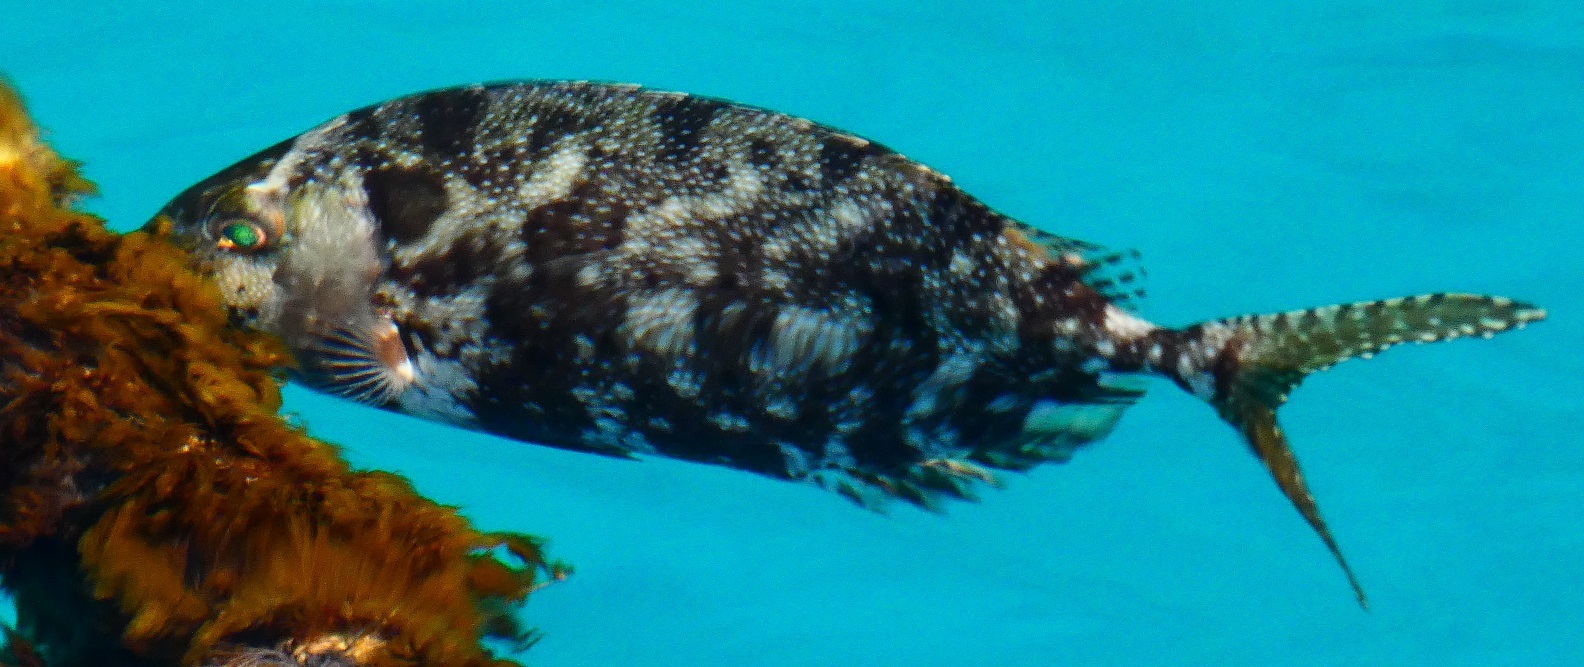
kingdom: Animalia
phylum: Chordata
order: Perciformes
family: Siganidae
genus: Siganus
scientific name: Siganus fuscescens
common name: Dusky rabbitfish
